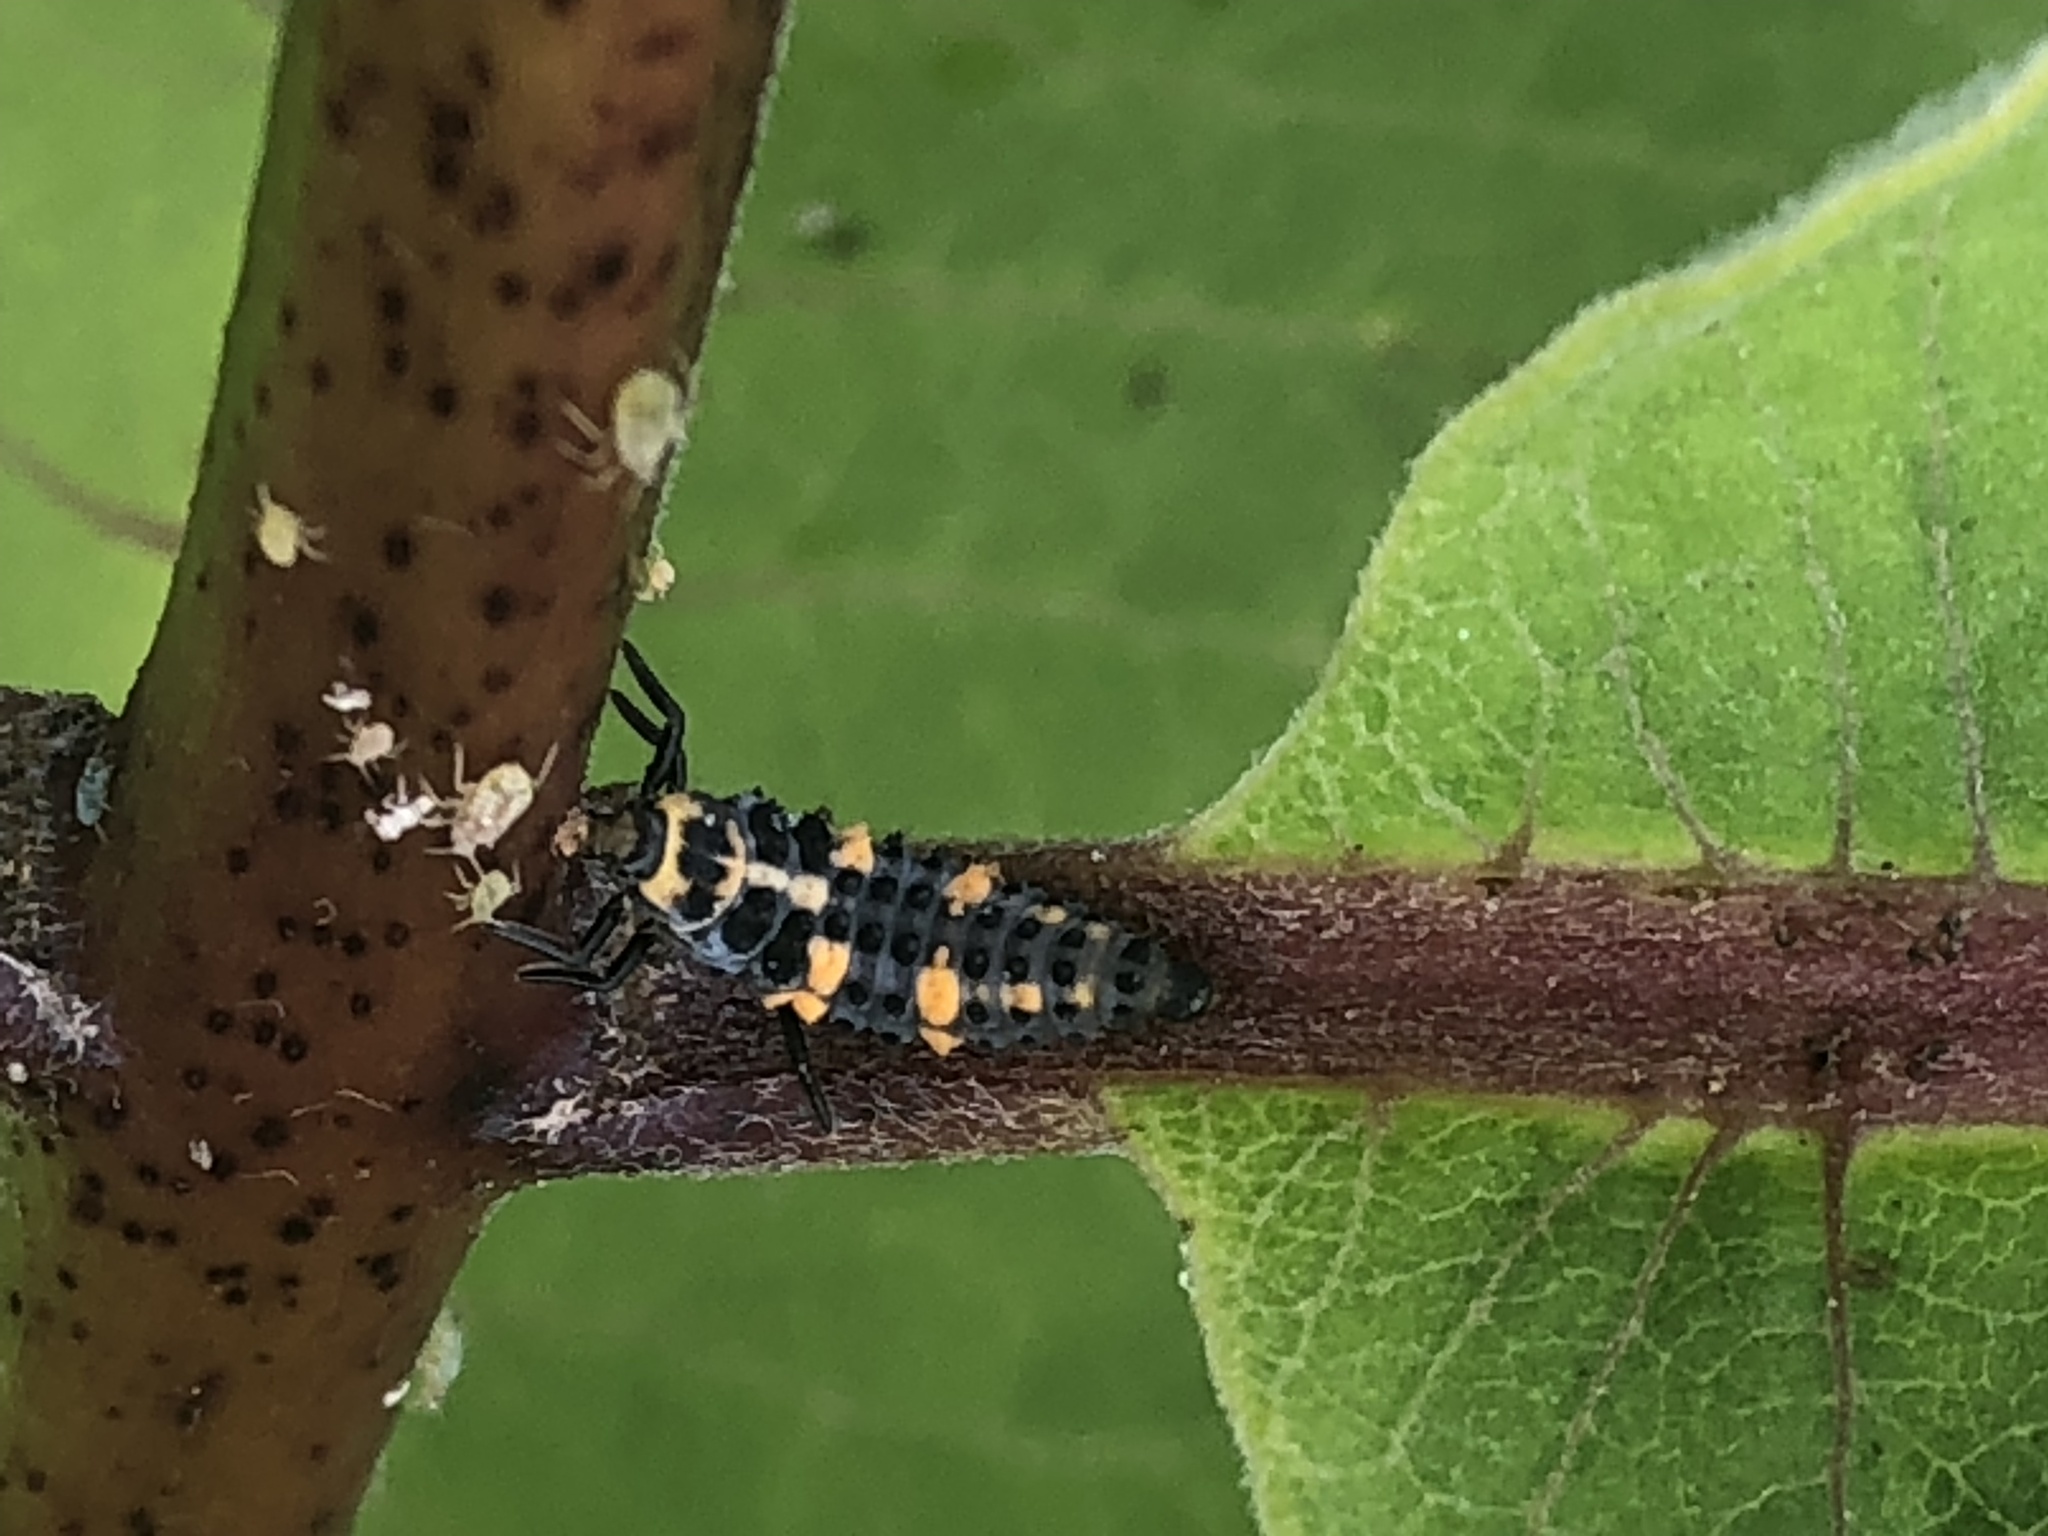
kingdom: Animalia
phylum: Arthropoda
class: Insecta
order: Coleoptera
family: Coccinellidae
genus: Coccinella
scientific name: Coccinella septempunctata
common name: Sevenspotted lady beetle
